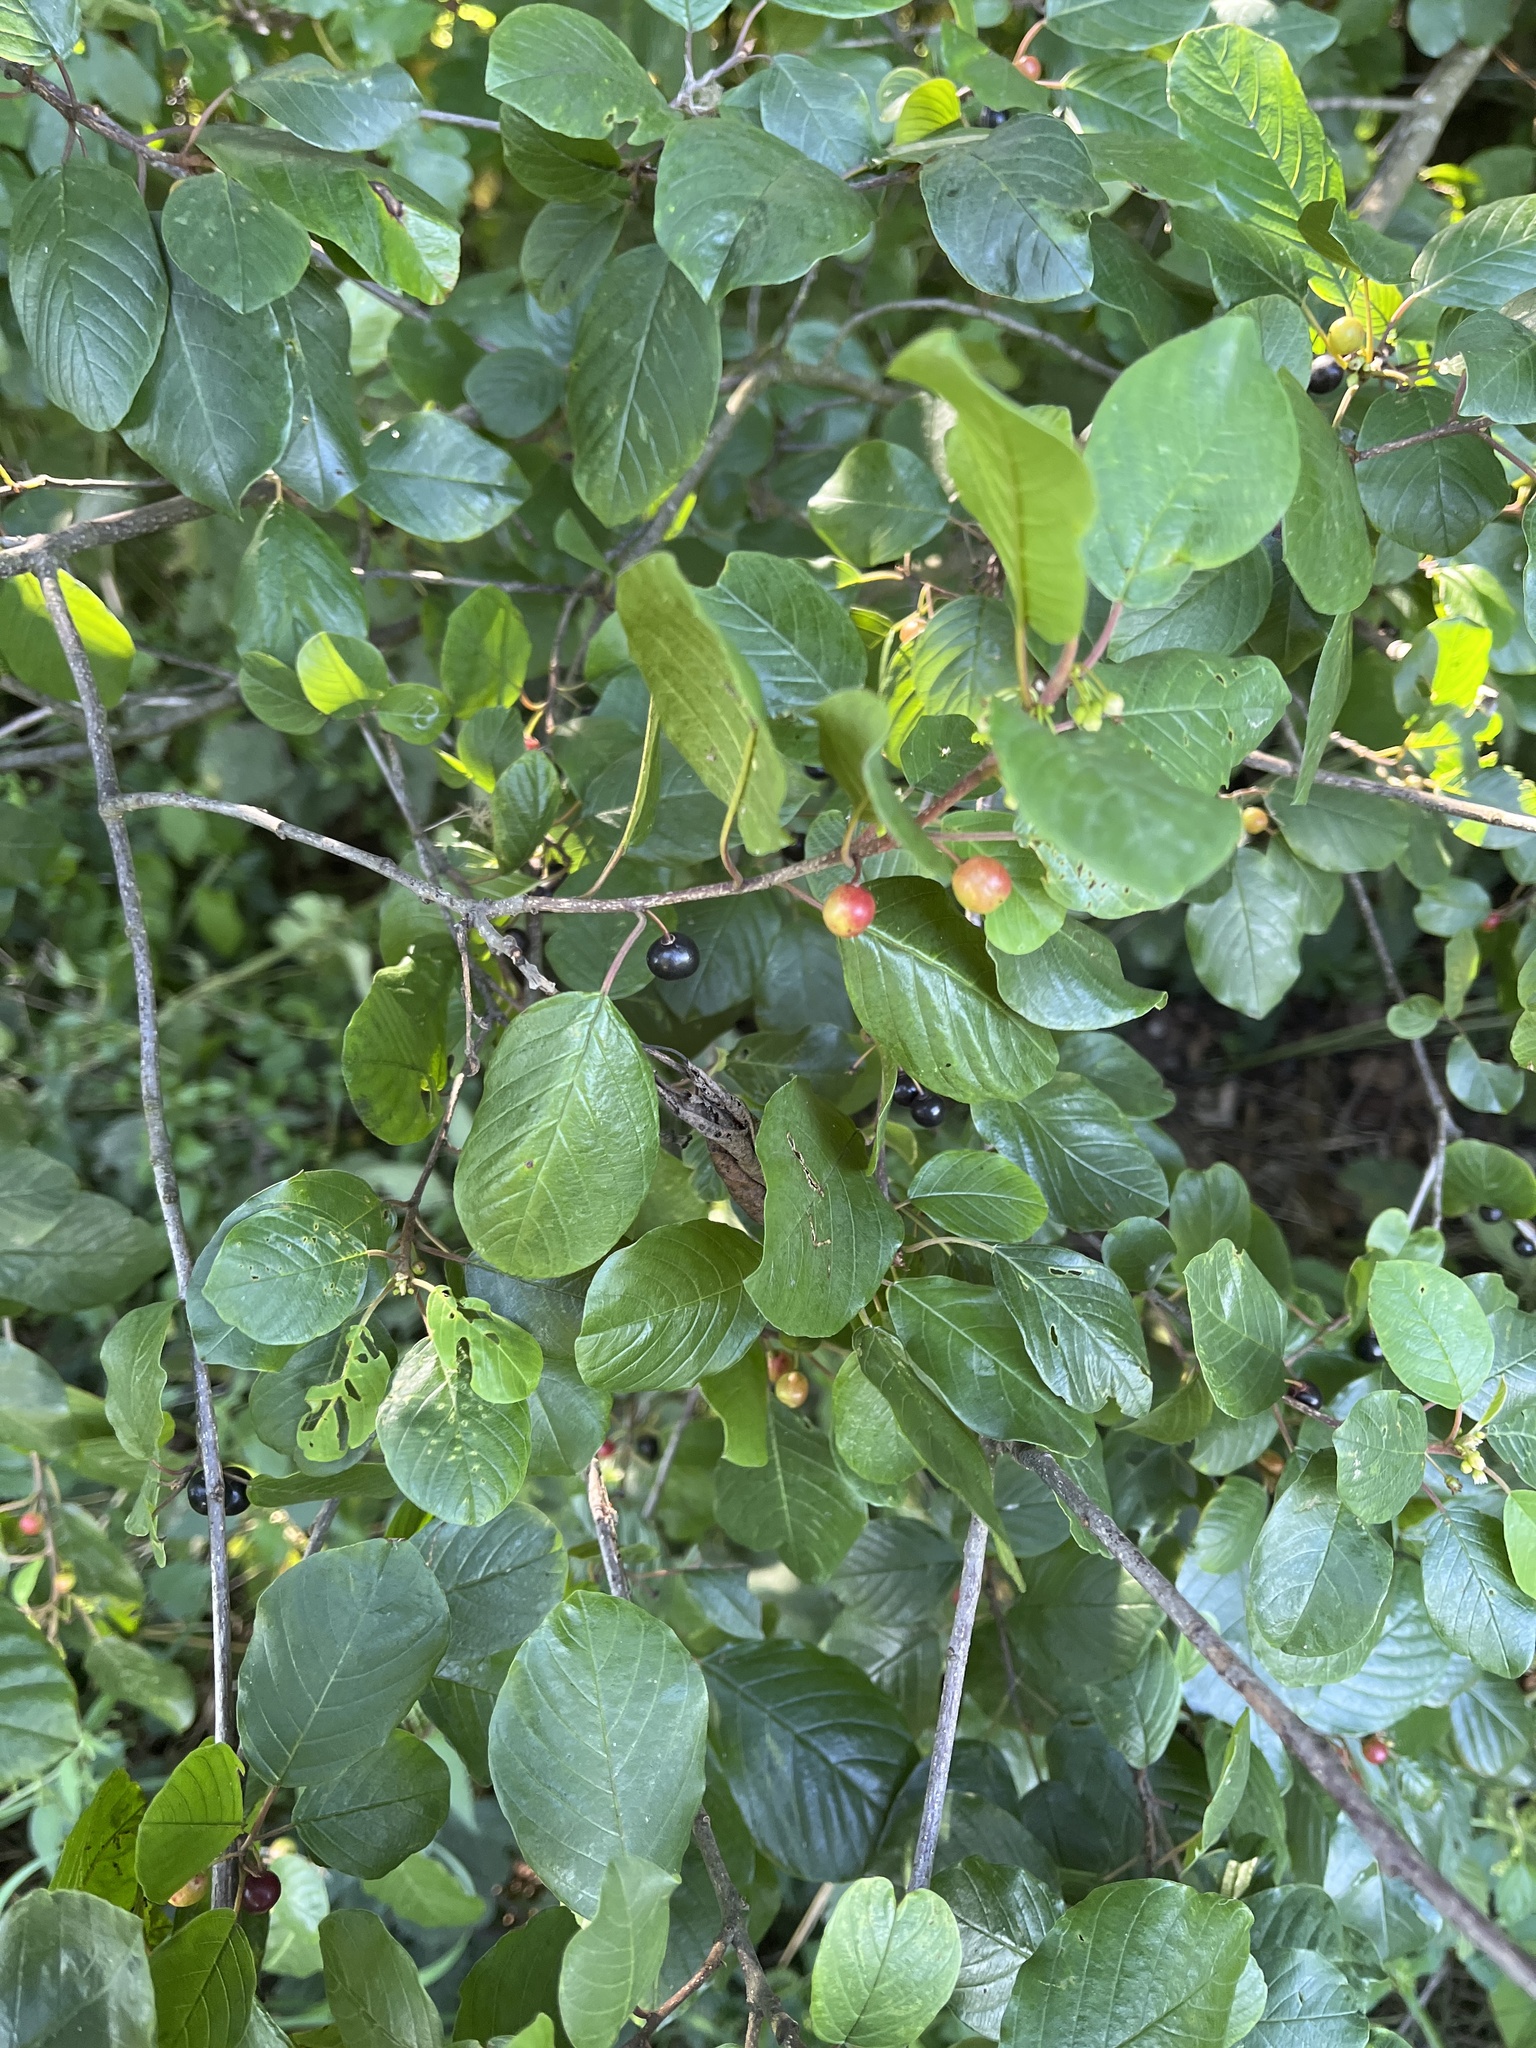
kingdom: Plantae
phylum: Tracheophyta
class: Magnoliopsida
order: Rosales
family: Rhamnaceae
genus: Frangula
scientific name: Frangula alnus
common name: Alder buckthorn
